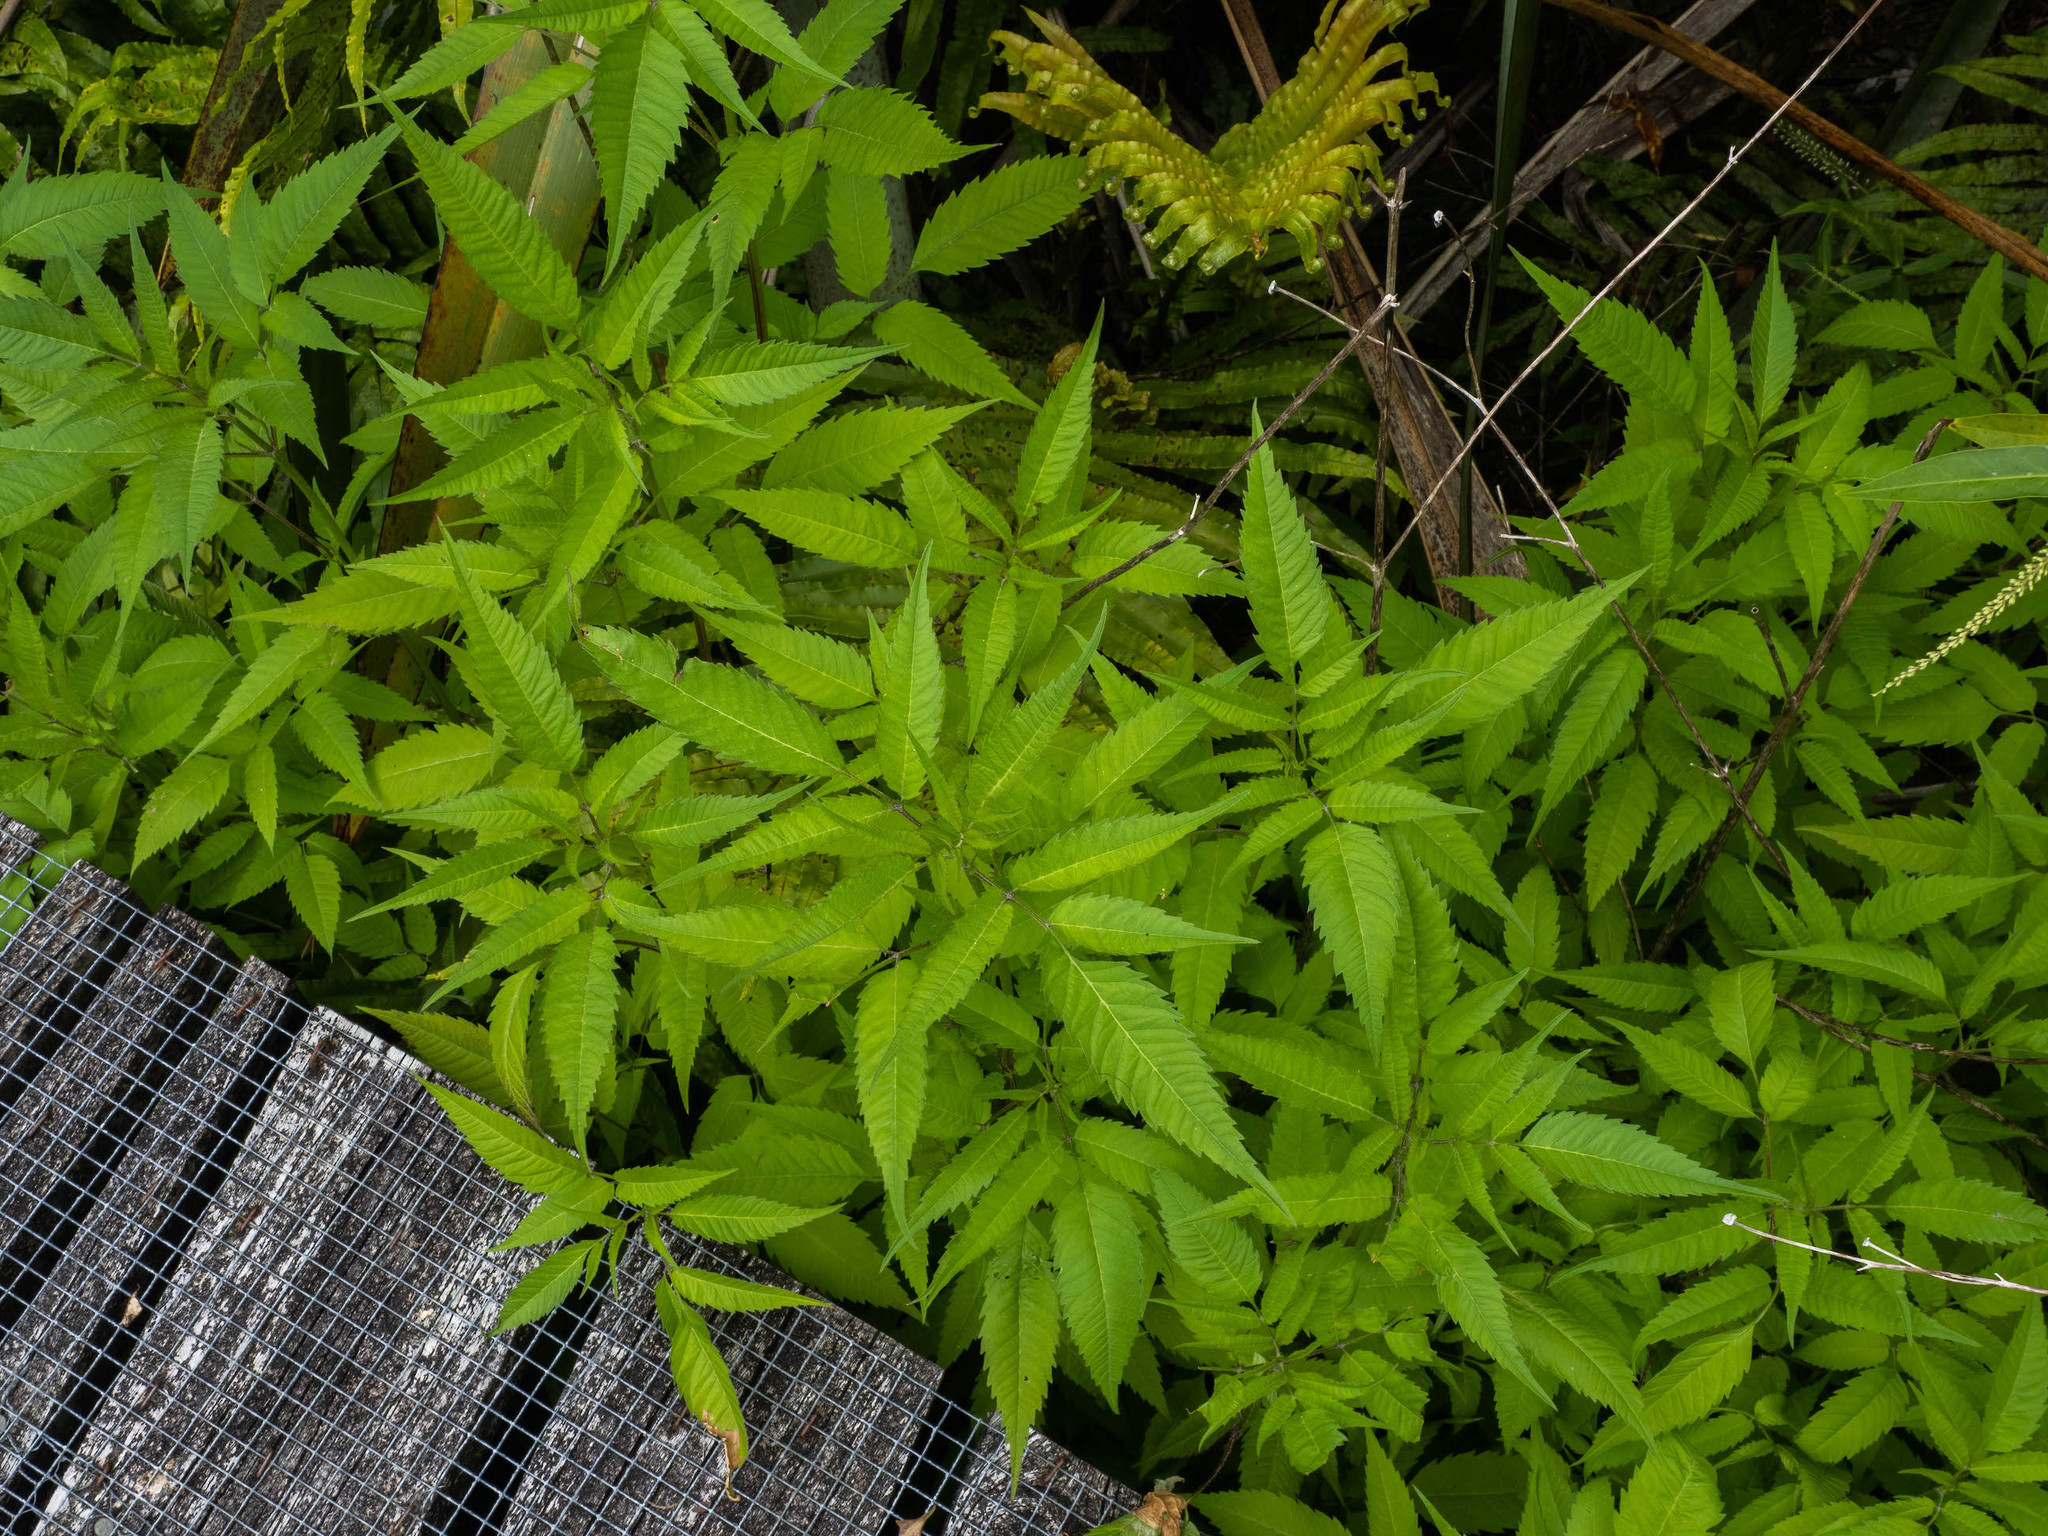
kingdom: Plantae
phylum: Tracheophyta
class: Magnoliopsida
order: Asterales
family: Asteraceae
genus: Bidens
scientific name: Bidens frondosa
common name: Beggarticks
